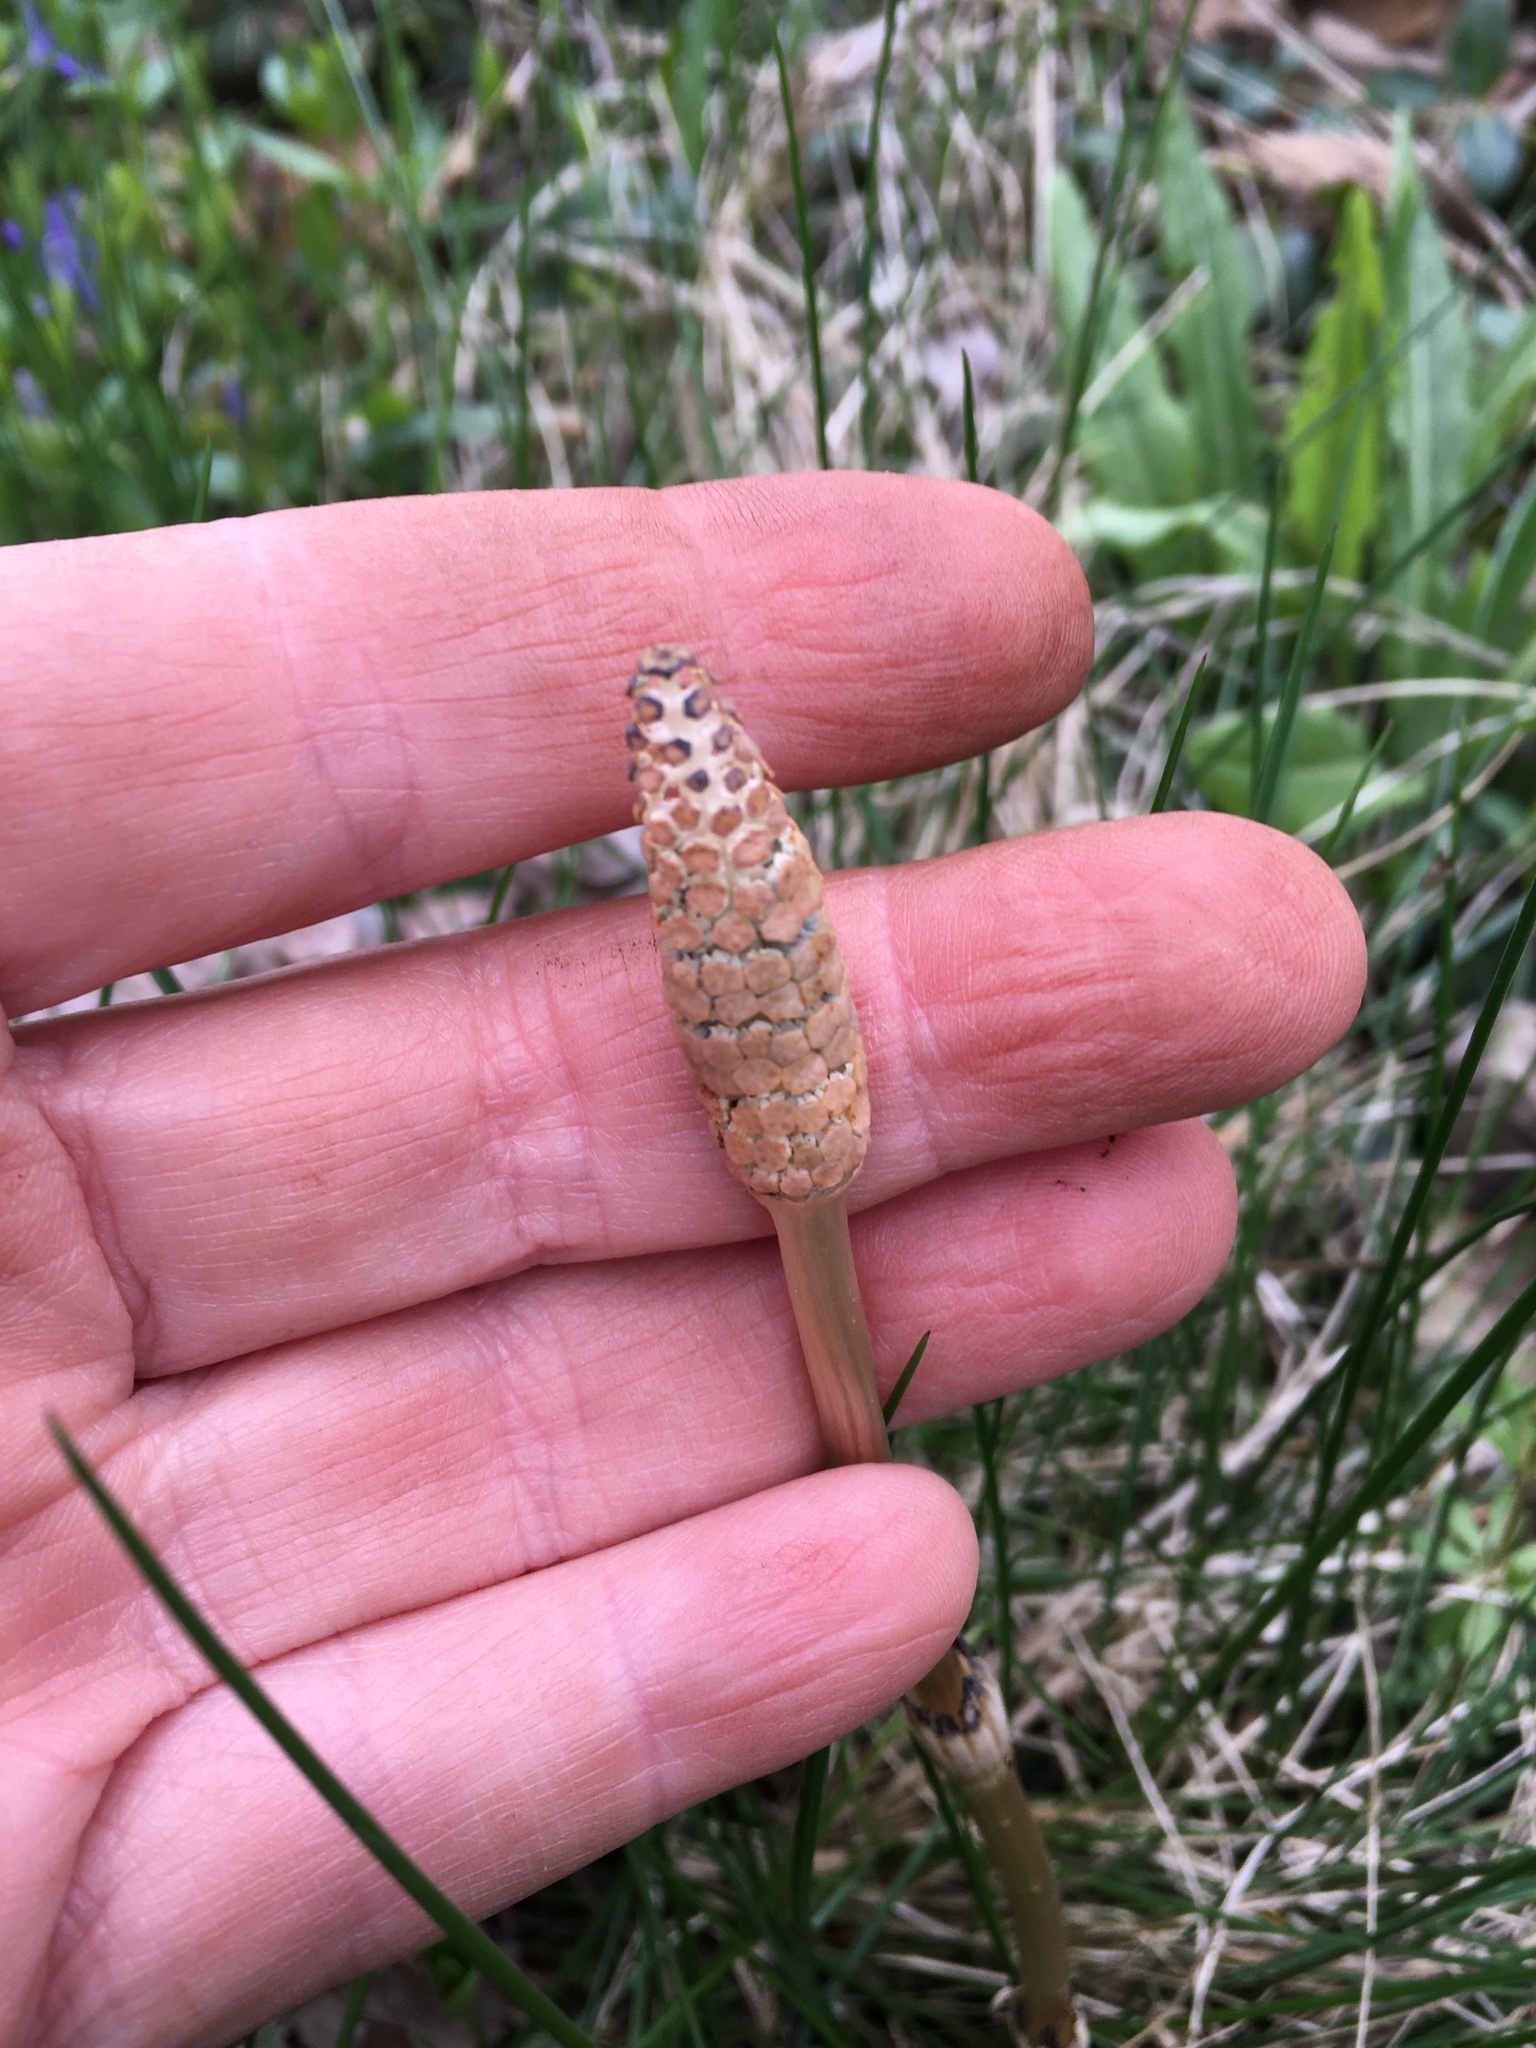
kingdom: Plantae
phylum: Tracheophyta
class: Polypodiopsida
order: Equisetales
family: Equisetaceae
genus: Equisetum
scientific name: Equisetum arvense
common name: Field horsetail
